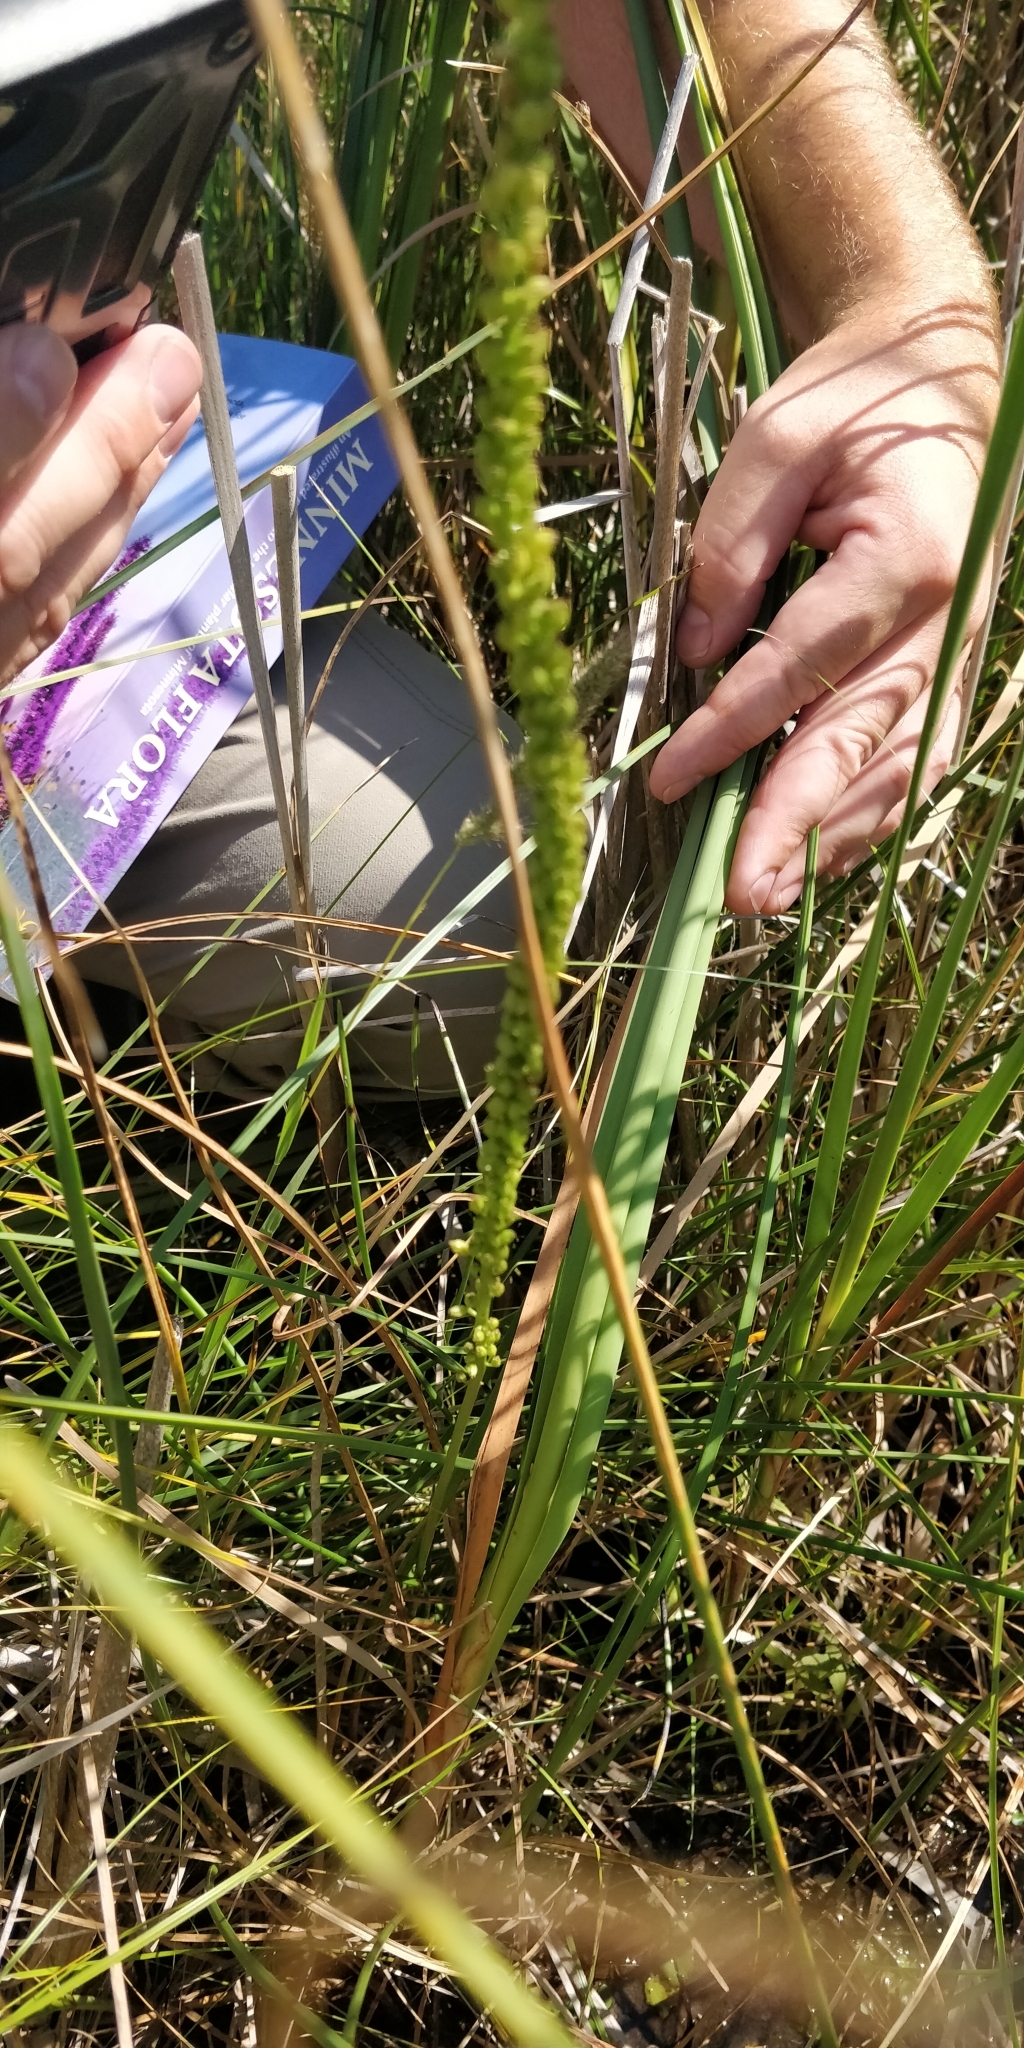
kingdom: Plantae
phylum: Tracheophyta
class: Liliopsida
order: Alismatales
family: Juncaginaceae
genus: Triglochin
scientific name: Triglochin maritima
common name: Sea arrowgrass
